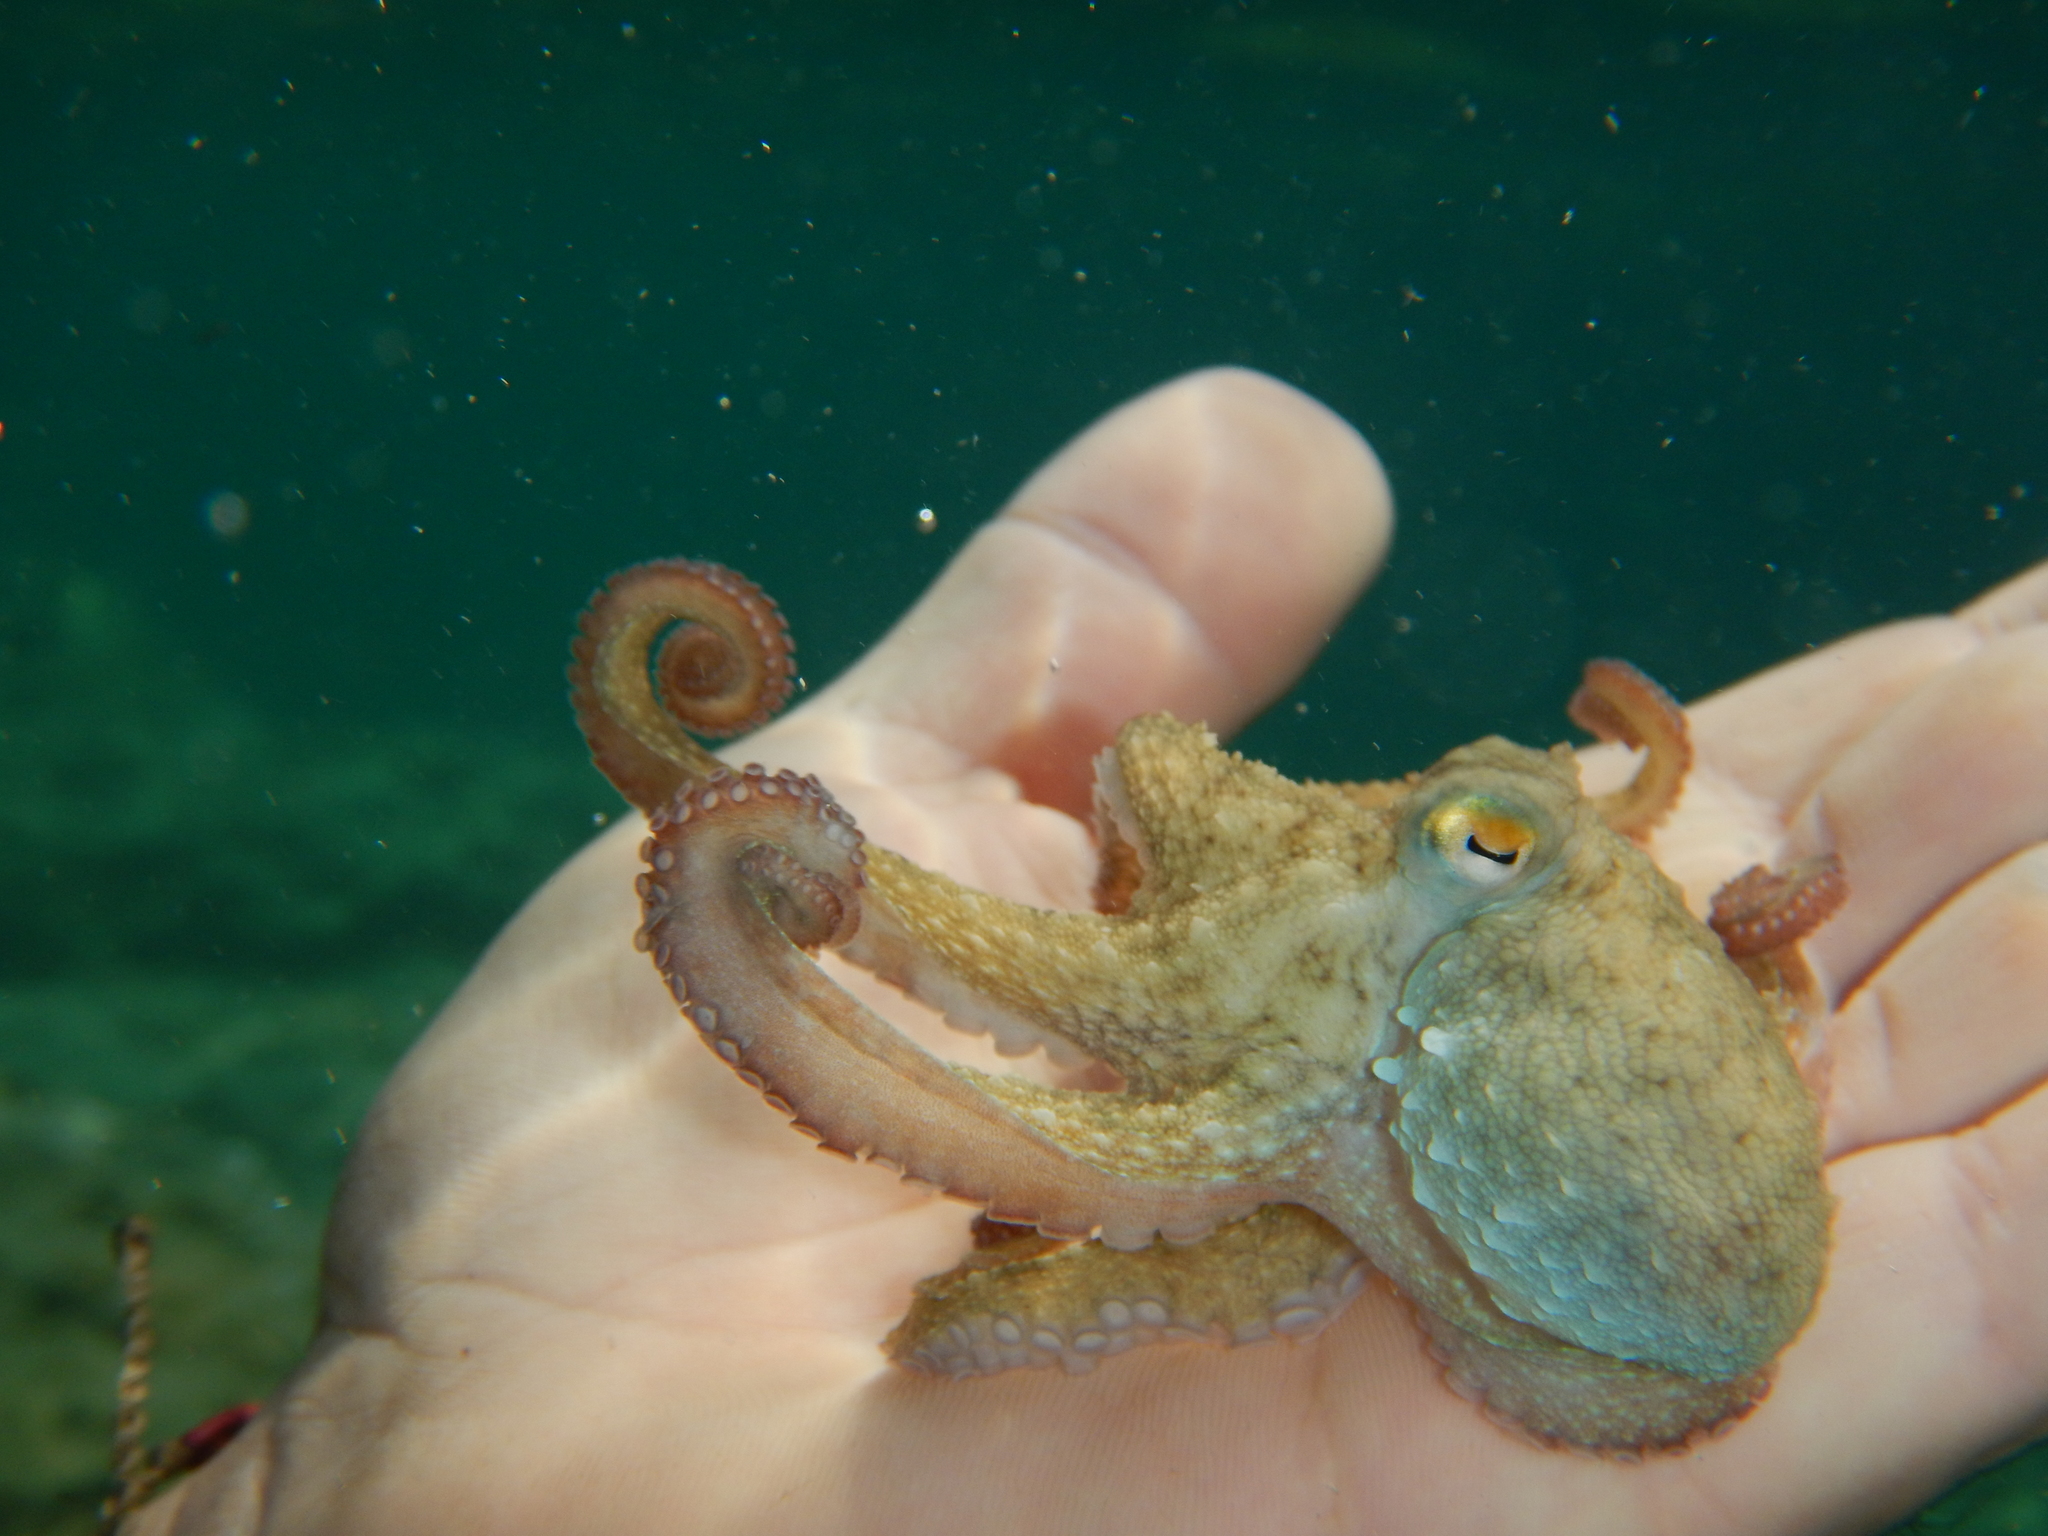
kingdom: Animalia
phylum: Mollusca
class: Cephalopoda
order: Octopoda
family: Octopodidae
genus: Octopus
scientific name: Octopus vulgaris
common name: Common octopus
